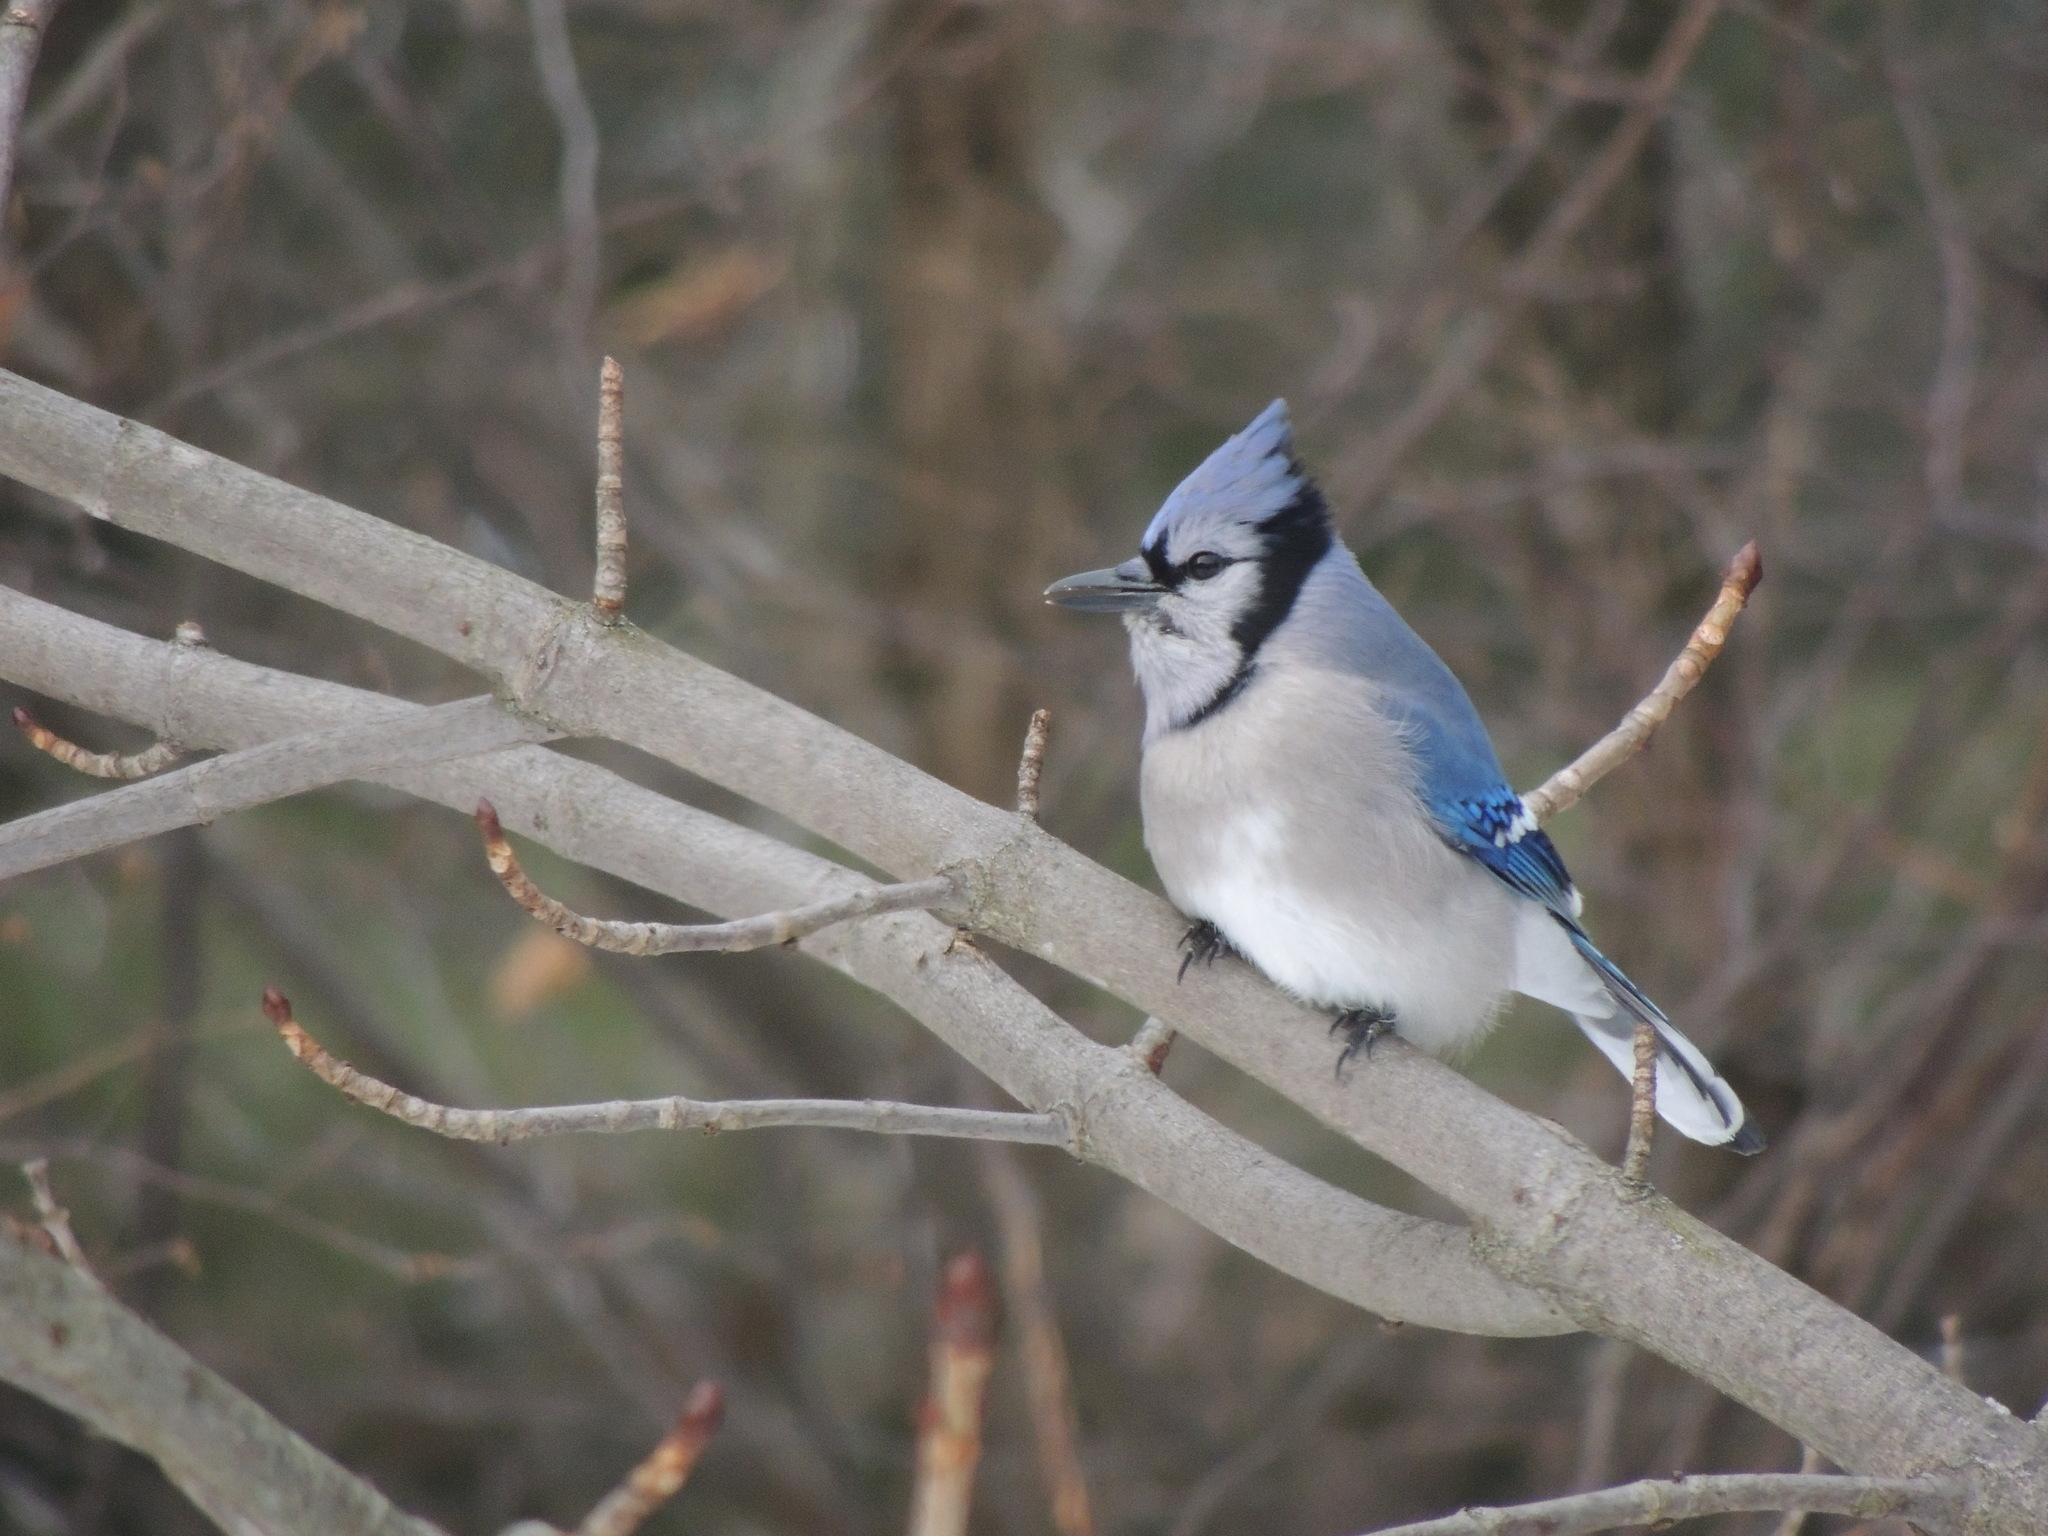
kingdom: Animalia
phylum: Chordata
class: Aves
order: Passeriformes
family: Corvidae
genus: Cyanocitta
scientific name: Cyanocitta cristata
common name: Blue jay
